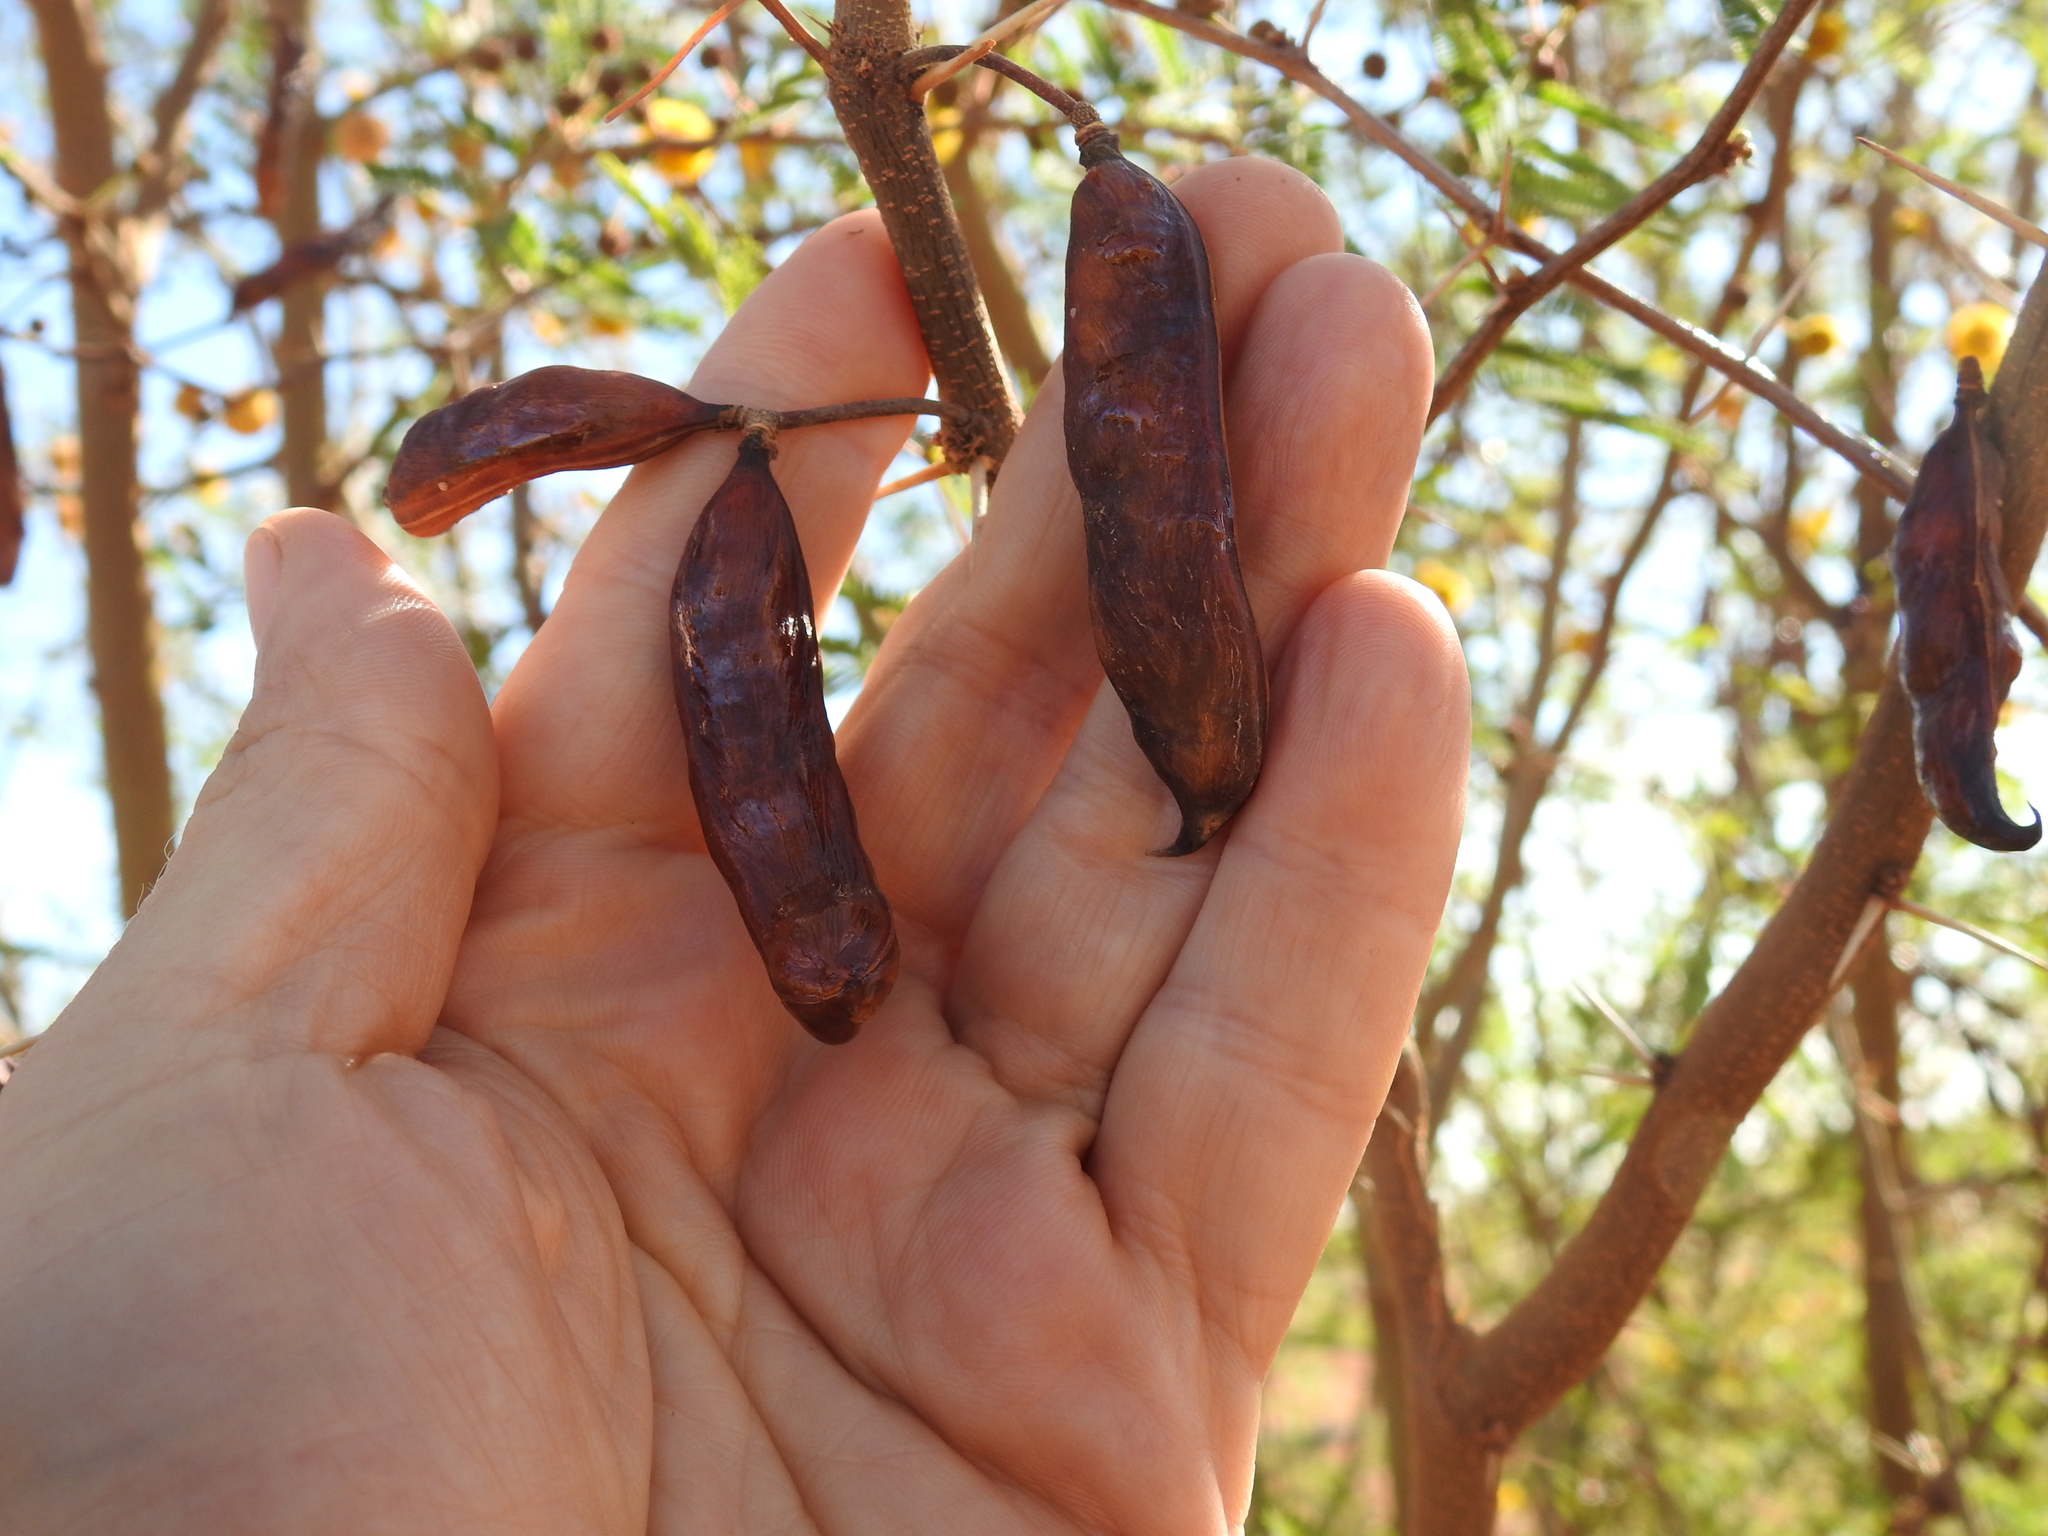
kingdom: Plantae
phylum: Tracheophyta
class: Magnoliopsida
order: Fabales
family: Fabaceae
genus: Vachellia
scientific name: Vachellia farnesiana
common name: Sweet acacia
